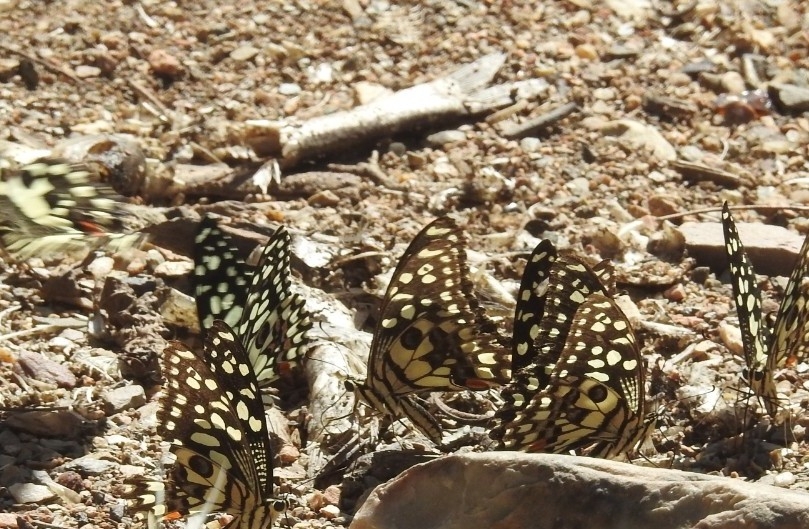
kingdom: Animalia
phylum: Arthropoda
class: Insecta
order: Lepidoptera
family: Papilionidae
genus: Papilio
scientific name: Papilio demoleus
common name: Lime butterfly
